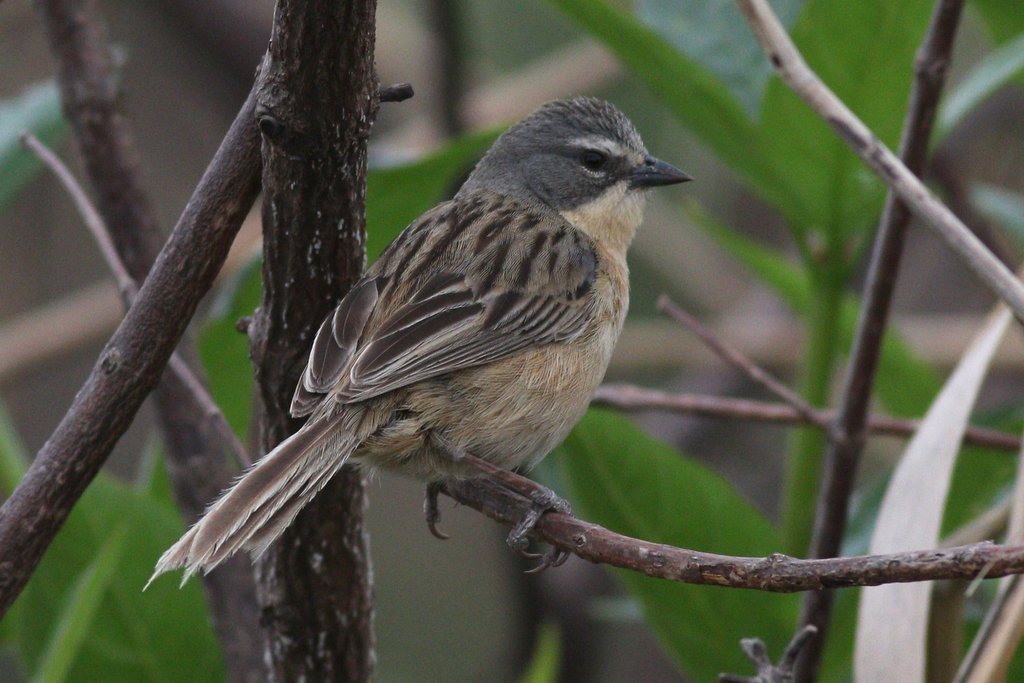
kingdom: Animalia
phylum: Chordata
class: Aves
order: Passeriformes
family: Thraupidae
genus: Donacospiza
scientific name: Donacospiza albifrons
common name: Long-tailed reed finch
